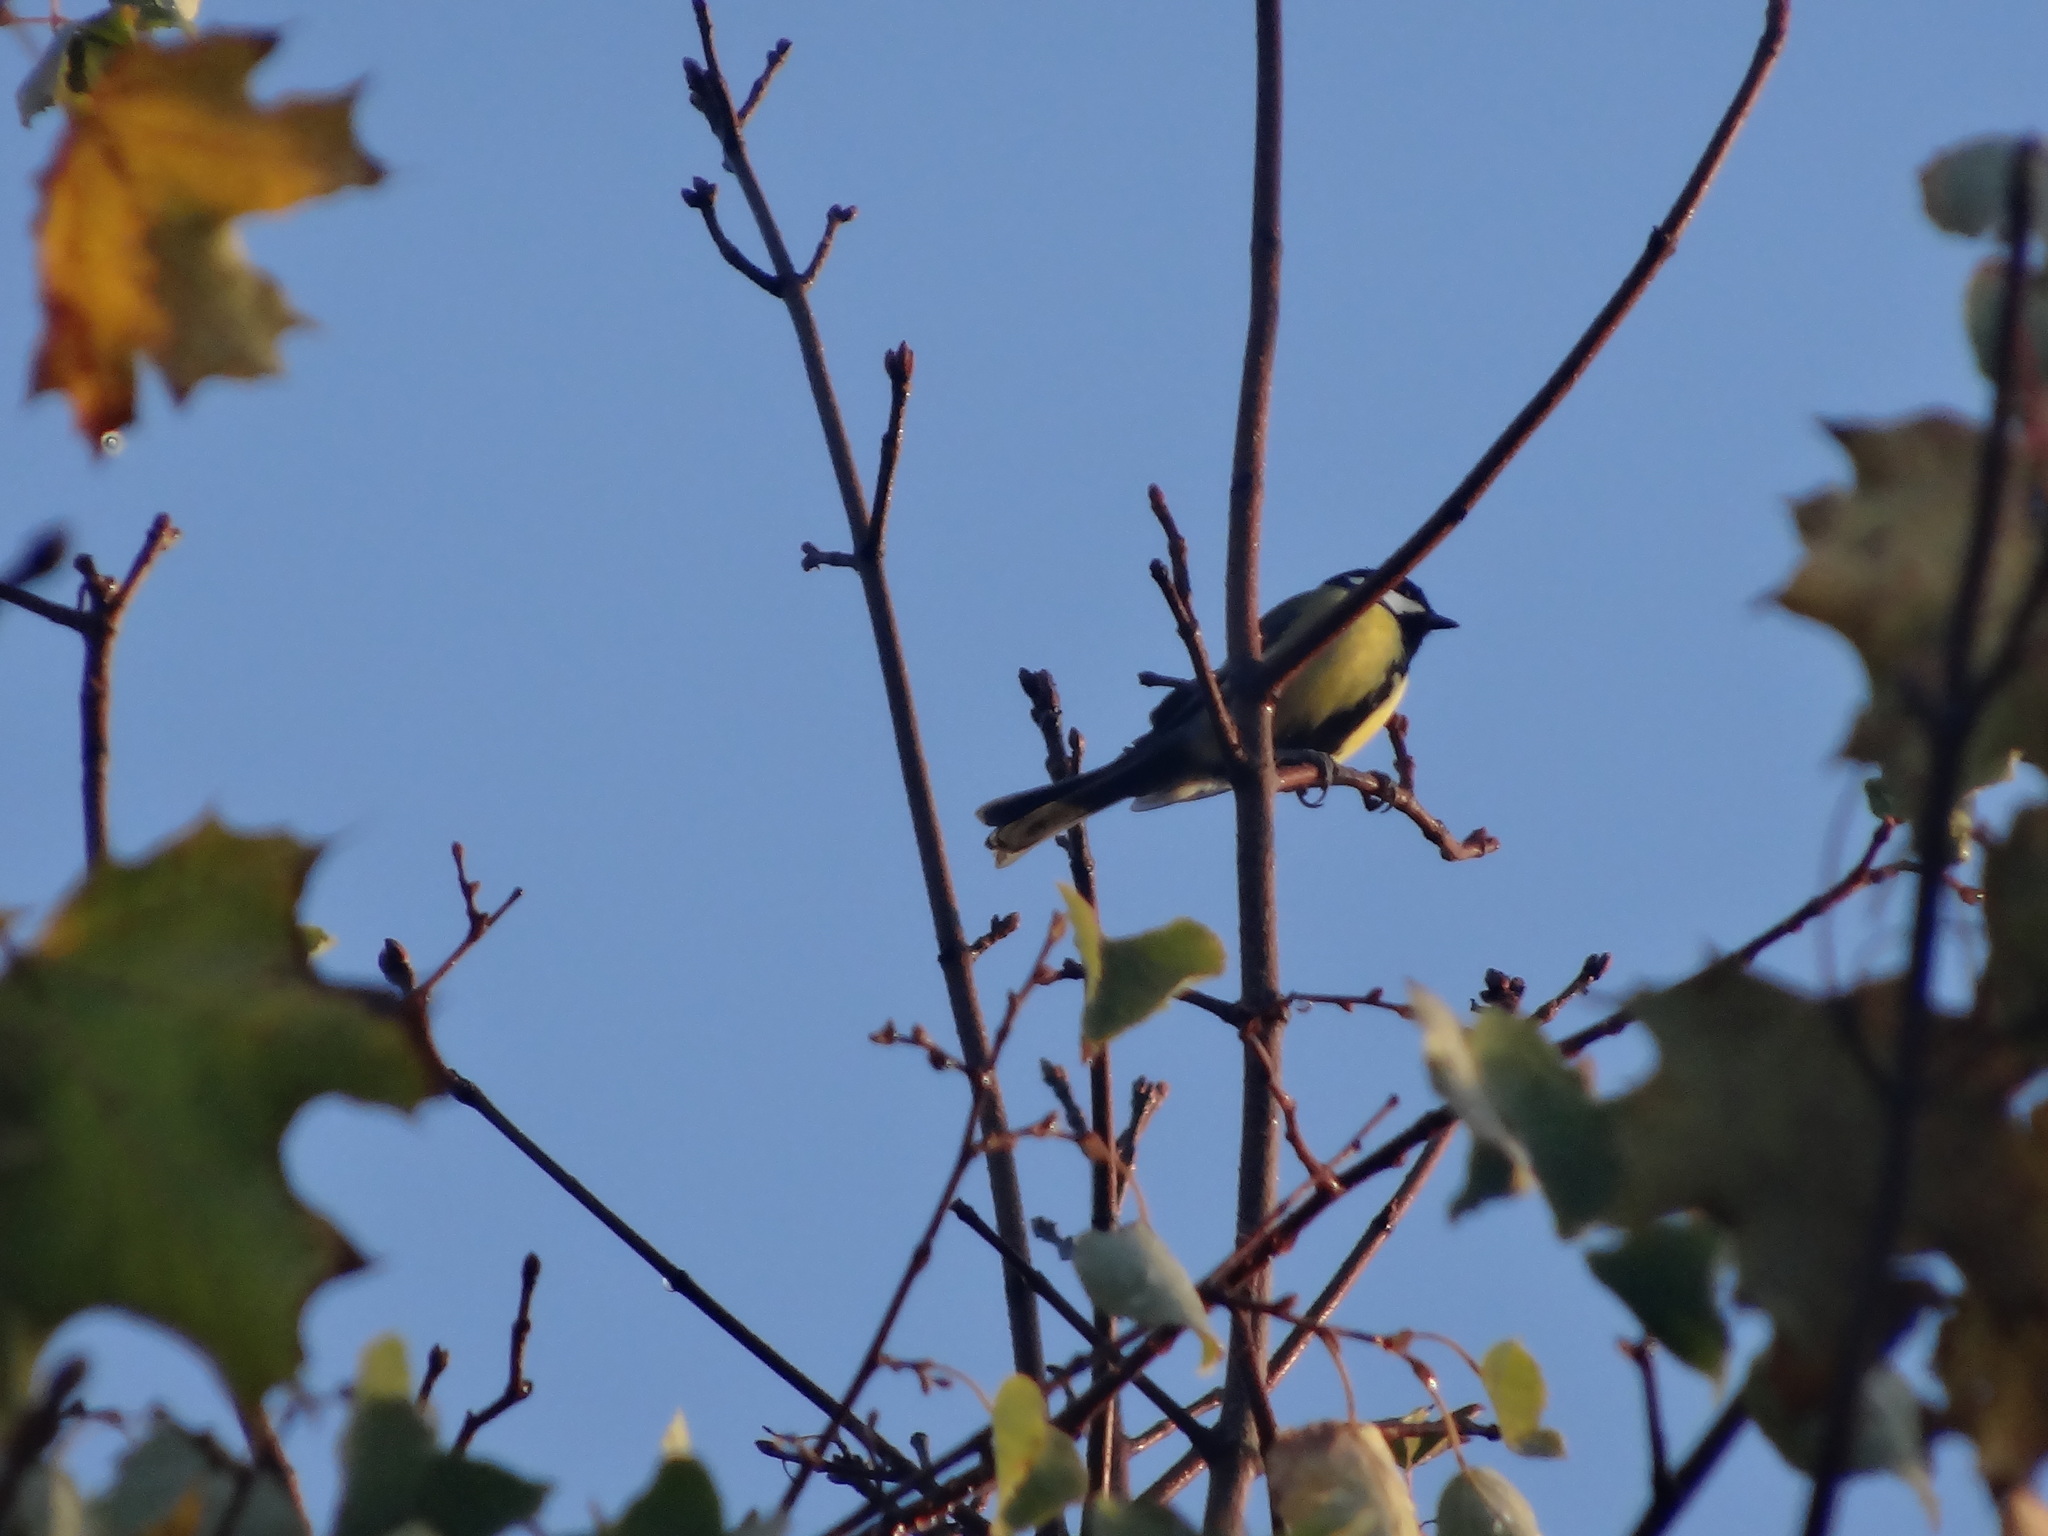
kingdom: Animalia
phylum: Chordata
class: Aves
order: Passeriformes
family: Paridae
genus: Parus
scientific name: Parus major
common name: Great tit
